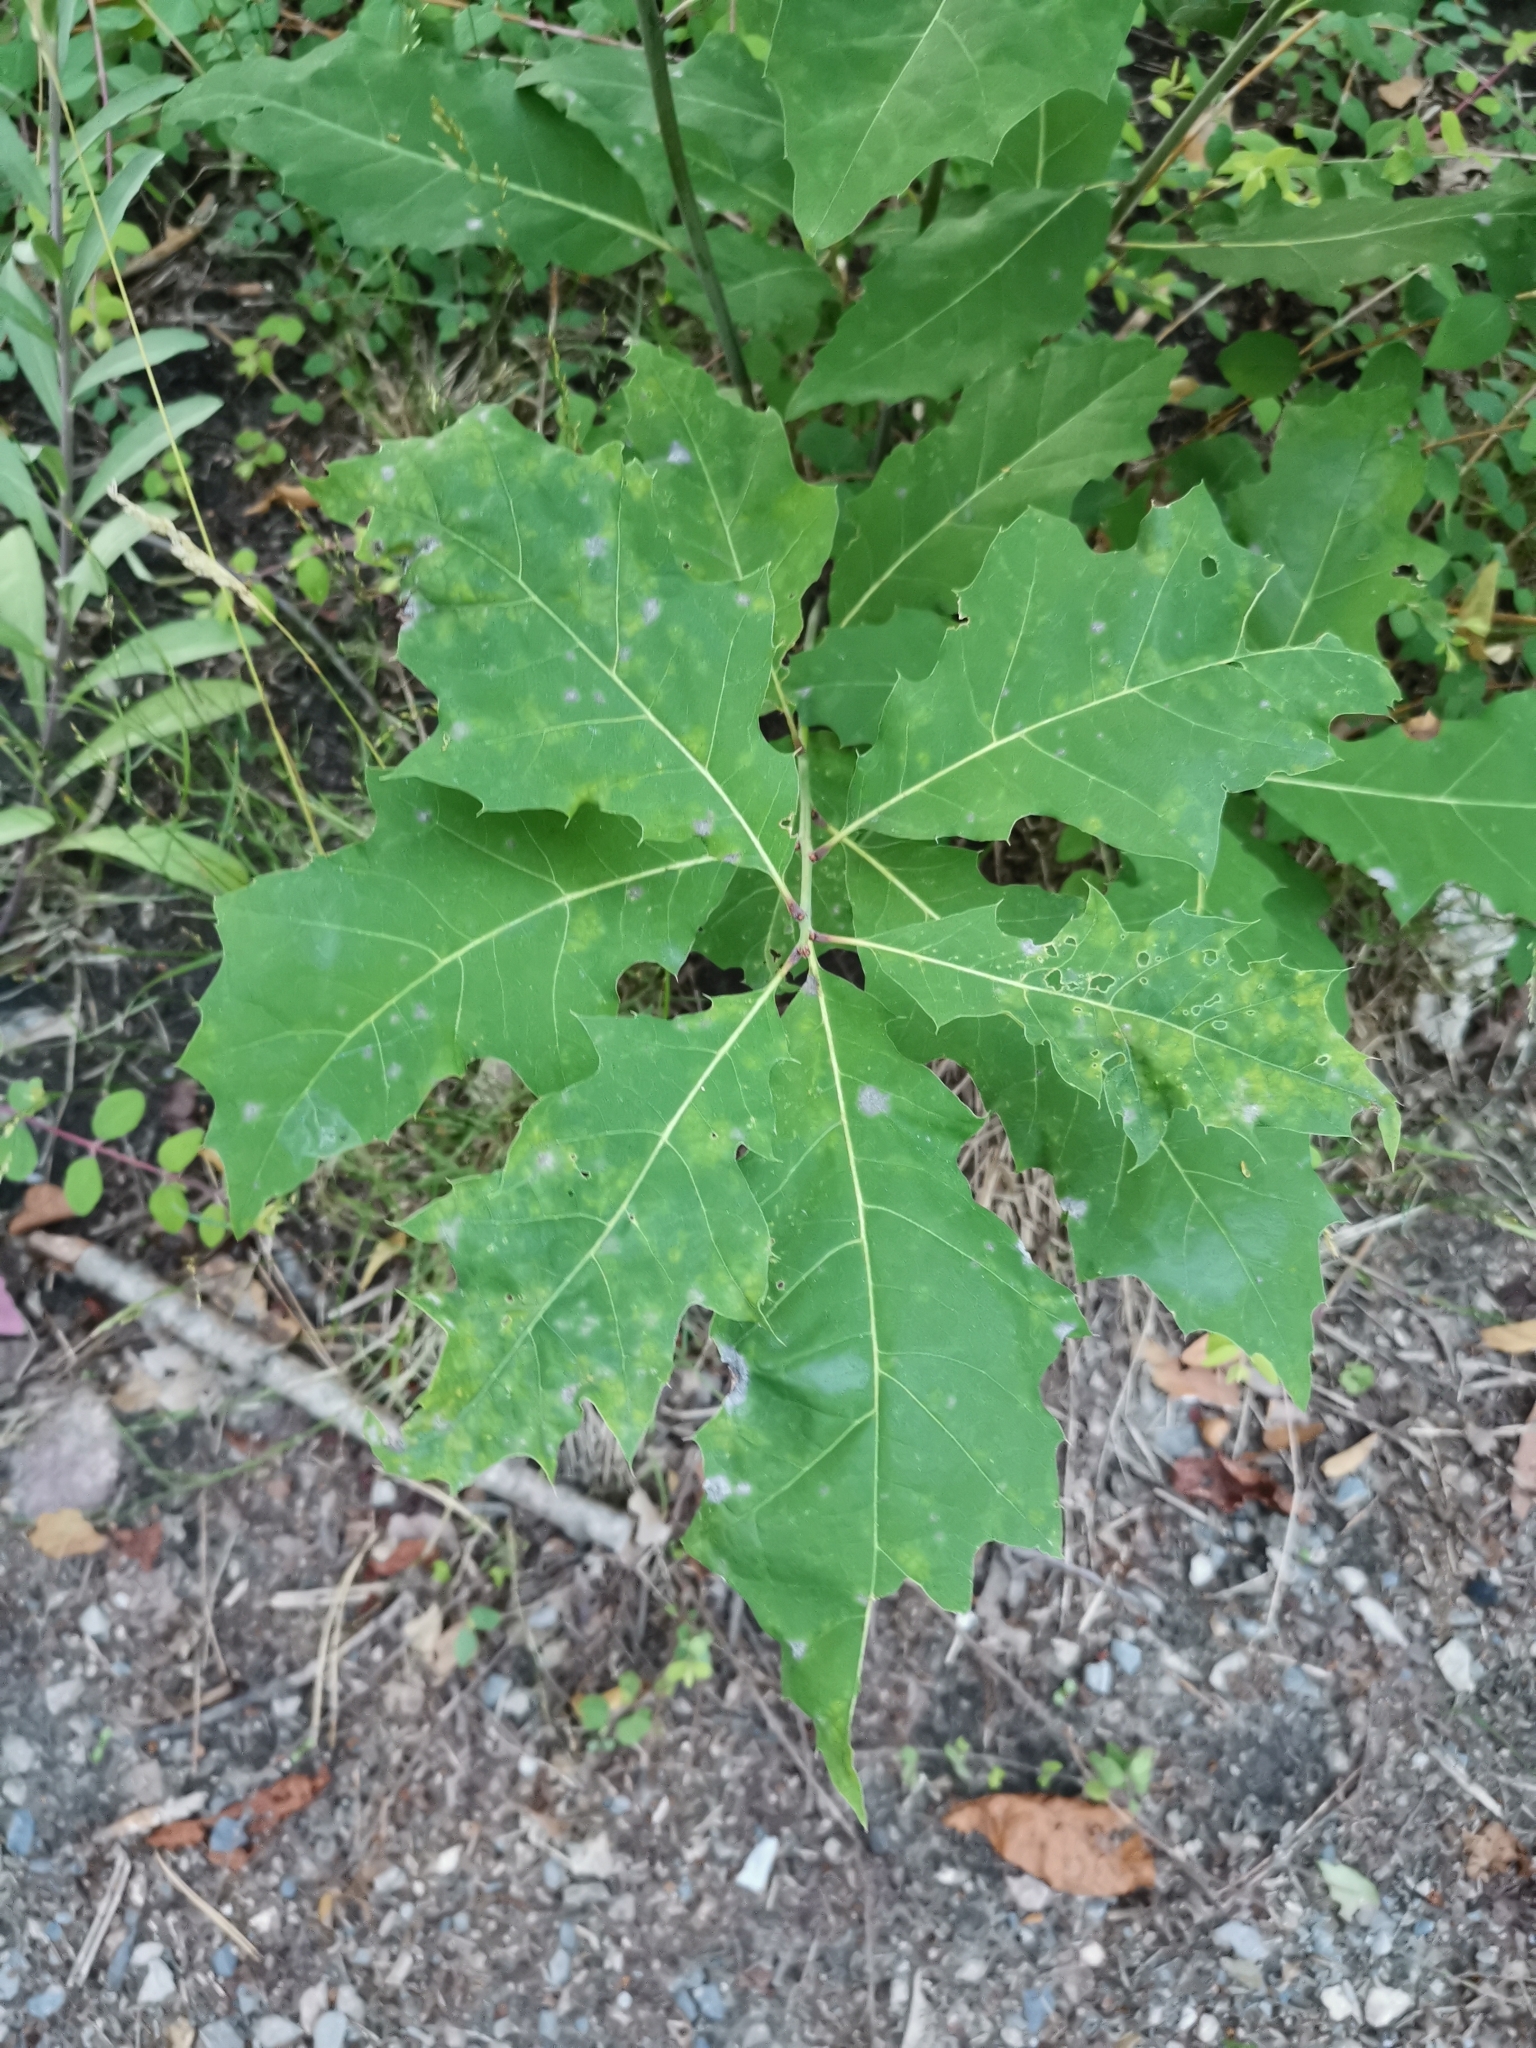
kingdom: Plantae
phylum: Tracheophyta
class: Magnoliopsida
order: Fagales
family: Fagaceae
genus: Quercus
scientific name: Quercus rubra
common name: Red oak
